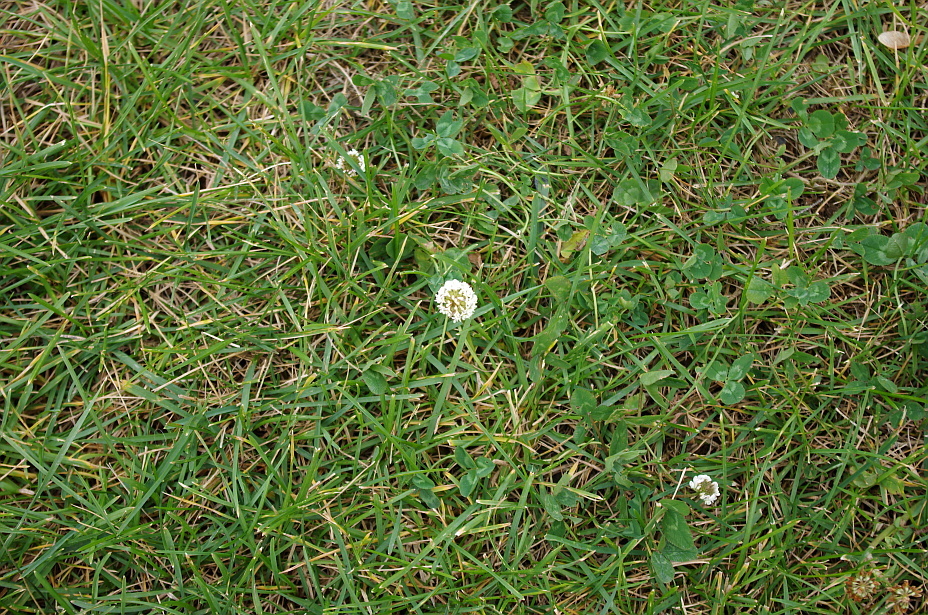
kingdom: Plantae
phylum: Tracheophyta
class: Magnoliopsida
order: Fabales
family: Fabaceae
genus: Trifolium
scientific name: Trifolium repens
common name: White clover
